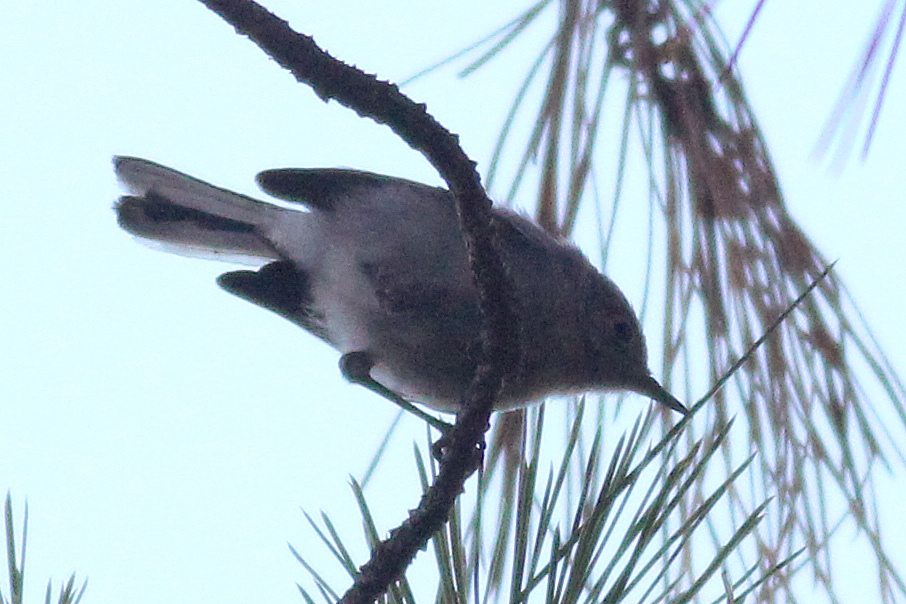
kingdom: Animalia
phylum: Chordata
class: Aves
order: Passeriformes
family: Polioptilidae
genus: Polioptila
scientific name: Polioptila caerulea
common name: Blue-gray gnatcatcher
